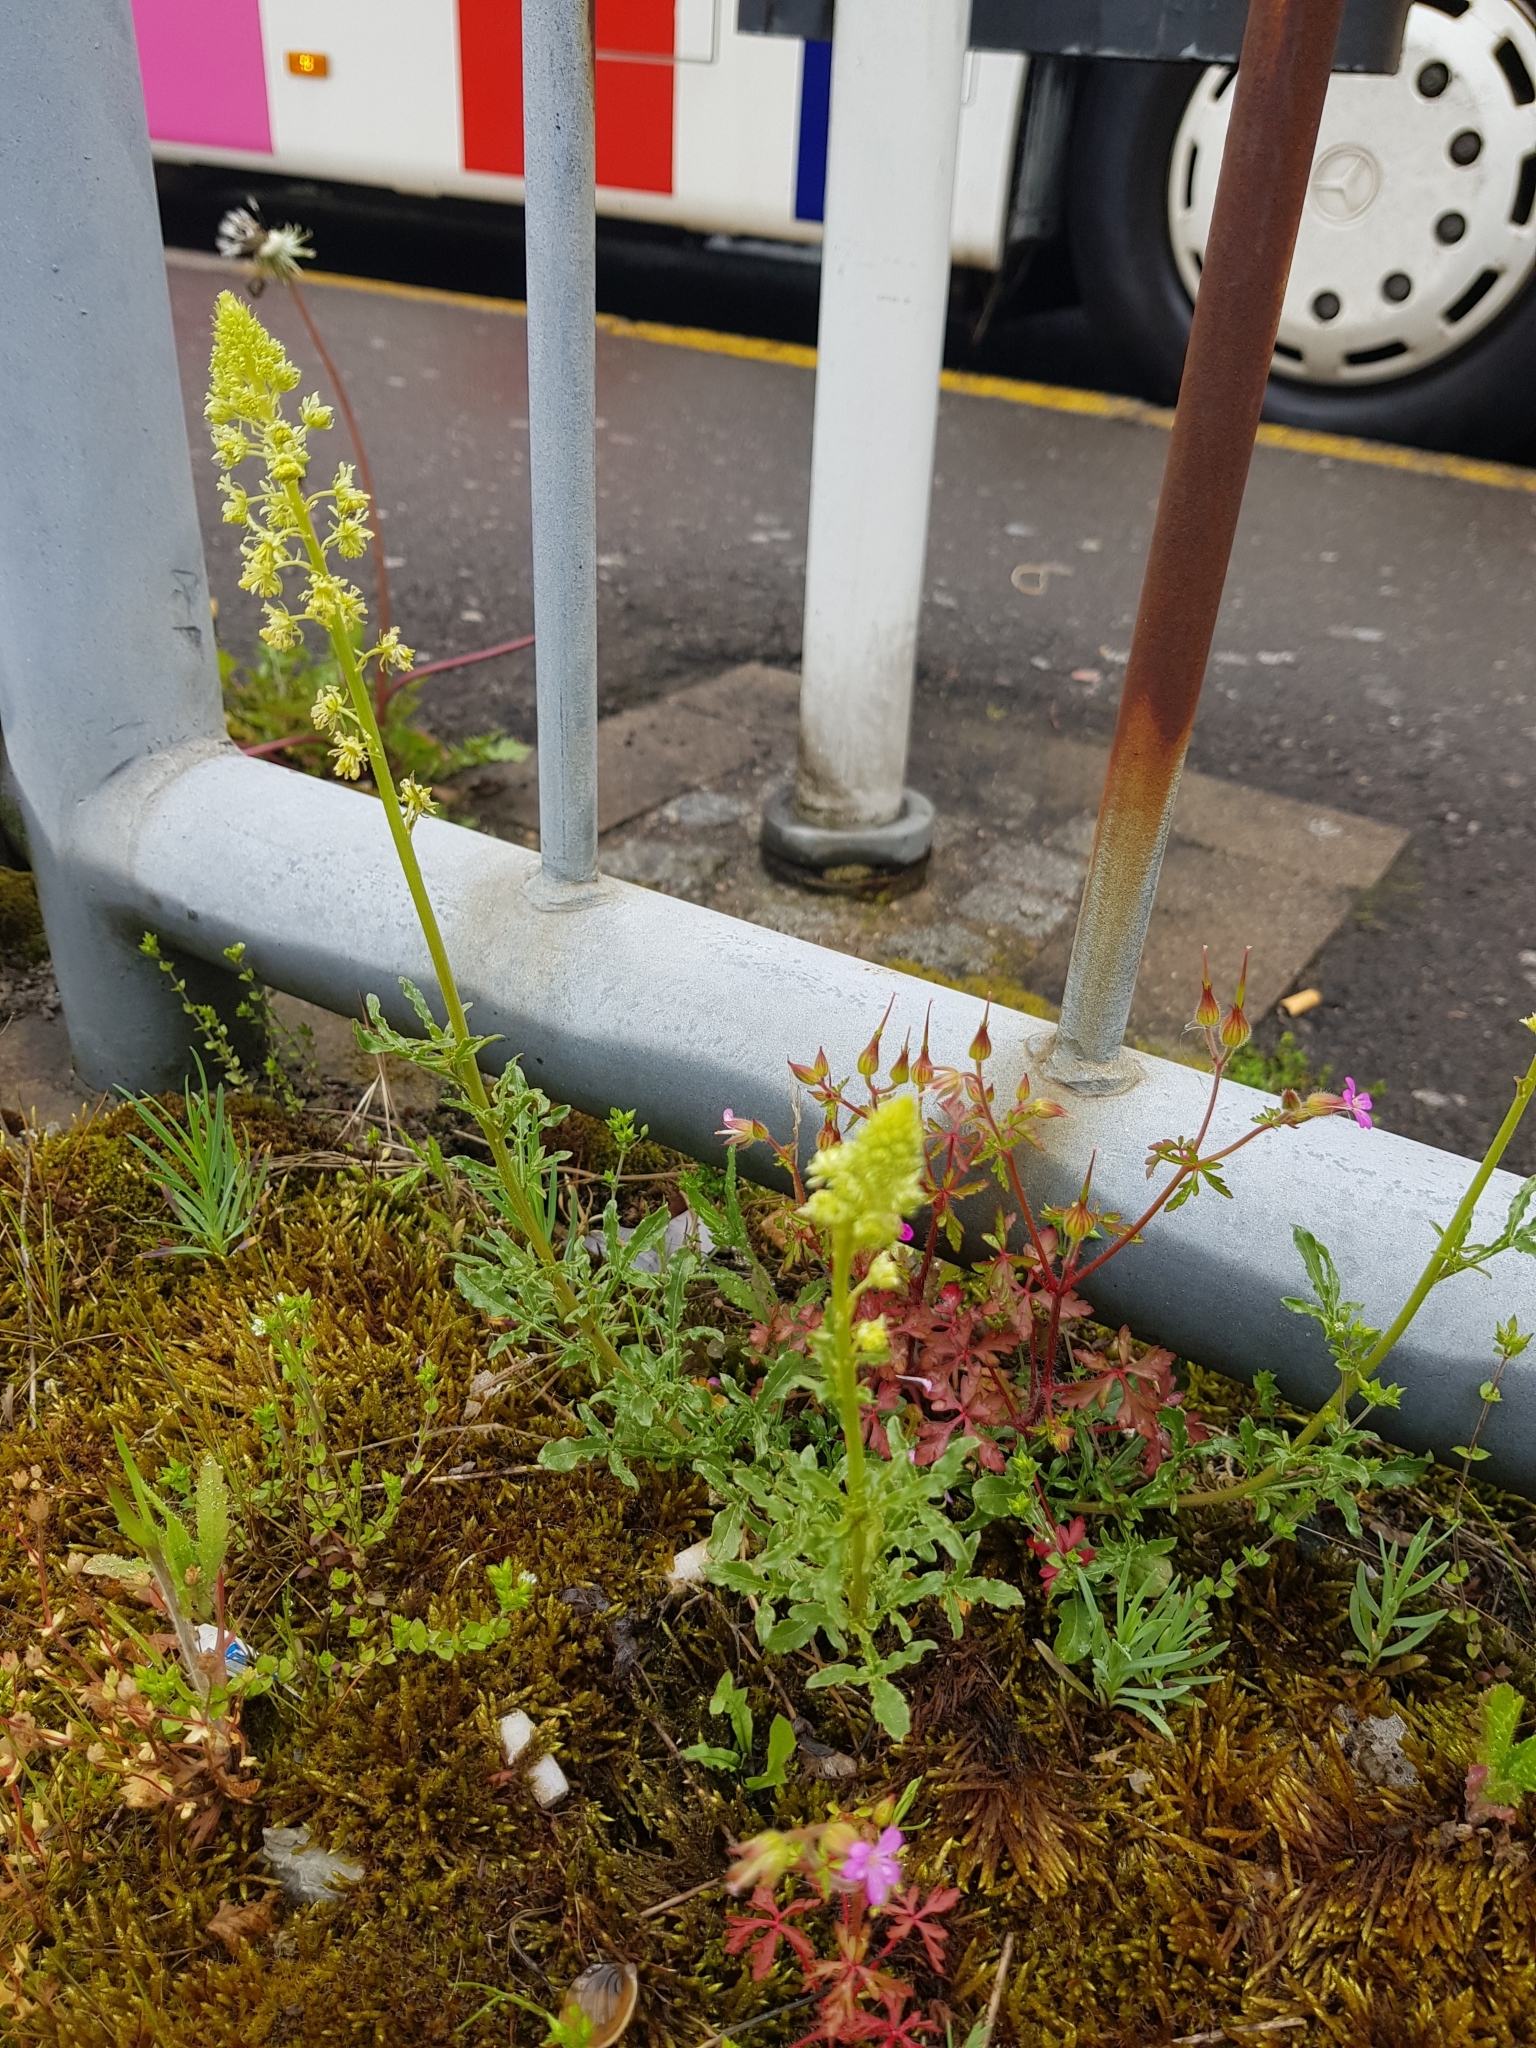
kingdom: Plantae
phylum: Tracheophyta
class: Magnoliopsida
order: Brassicales
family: Resedaceae
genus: Reseda
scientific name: Reseda lutea
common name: Wild mignonette
